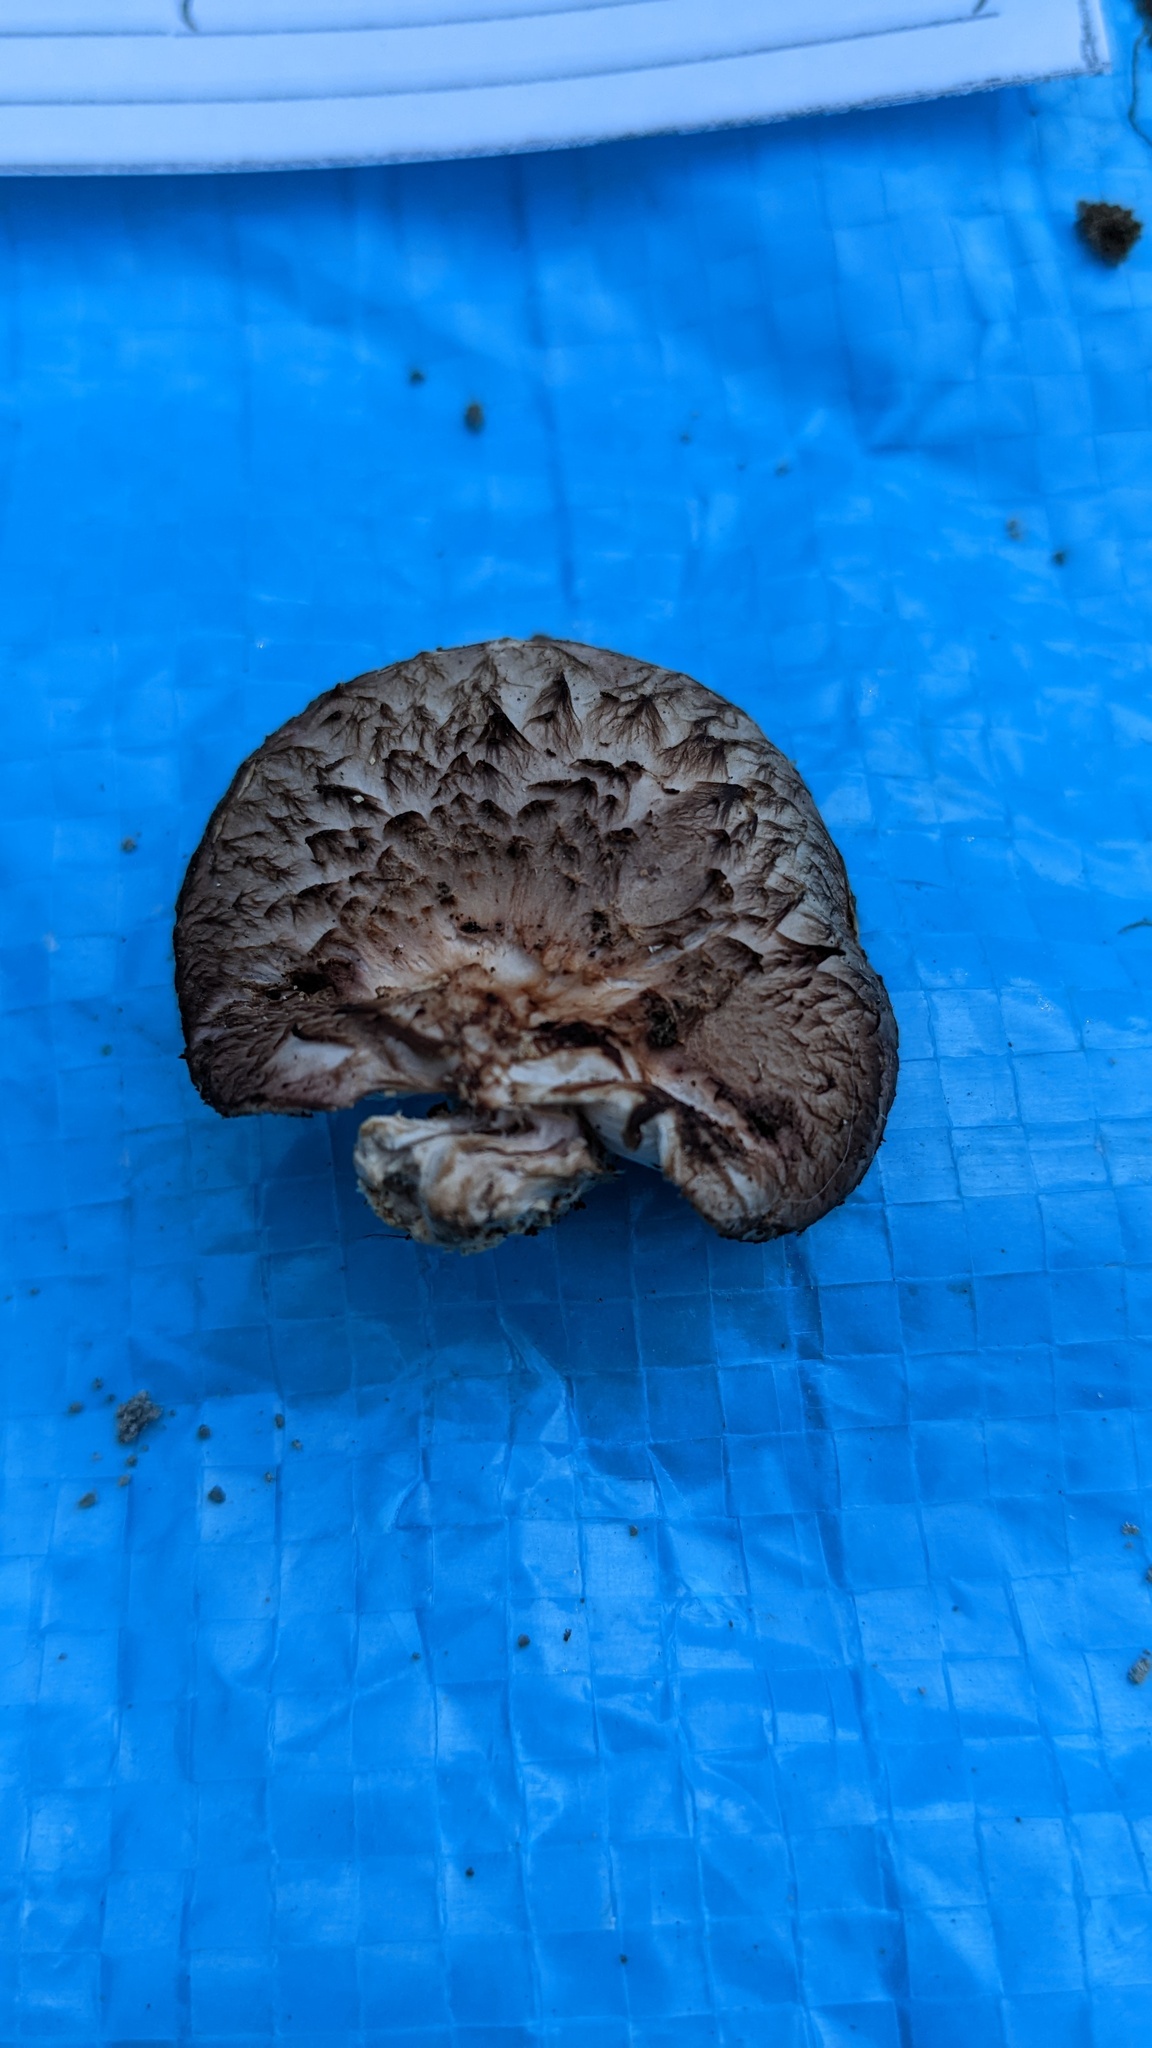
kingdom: Fungi
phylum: Basidiomycota
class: Agaricomycetes
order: Agaricales
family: Omphalotaceae
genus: Lentinula
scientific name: Lentinula edodes
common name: Shiitake
